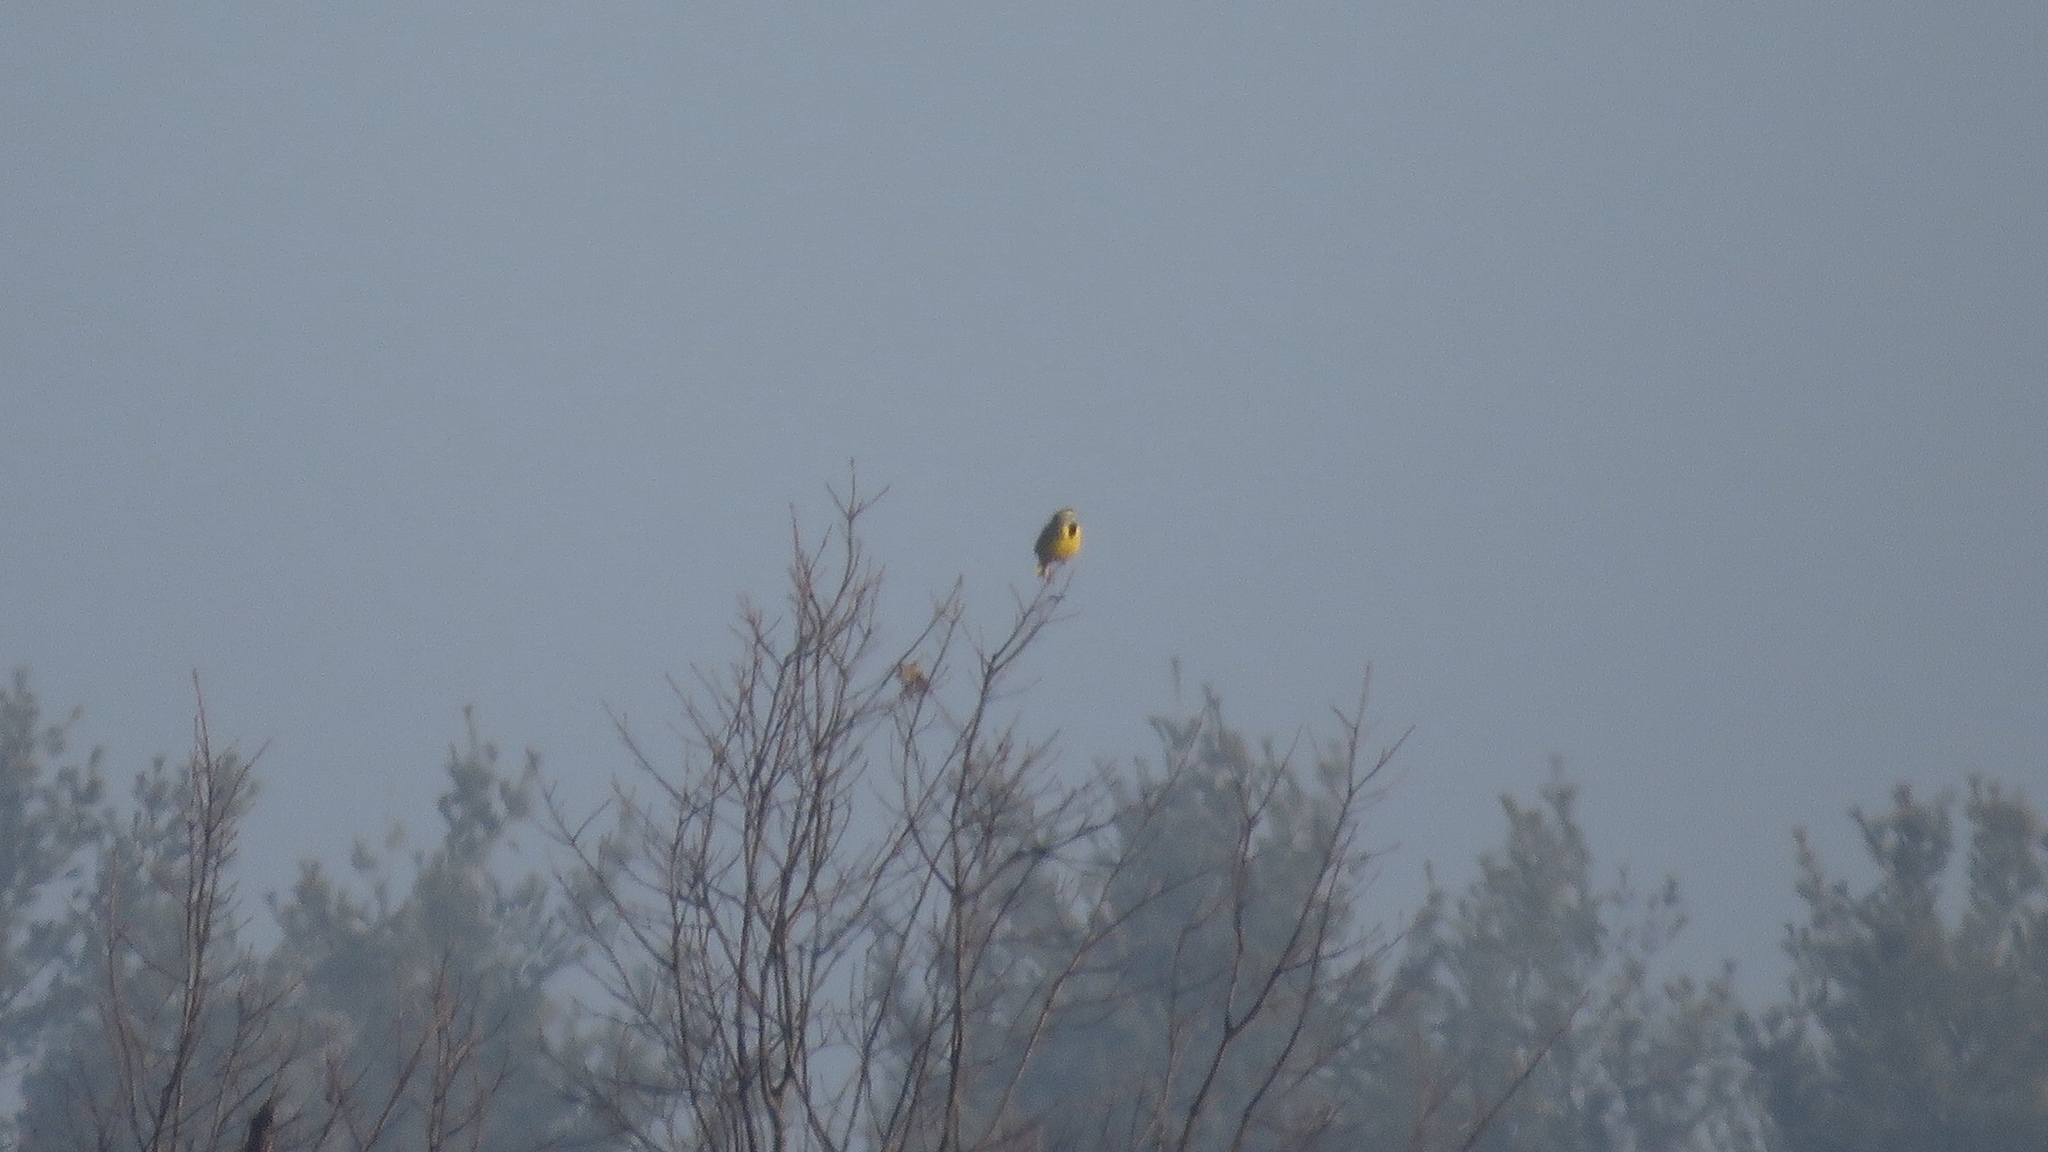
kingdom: Animalia
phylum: Chordata
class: Aves
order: Passeriformes
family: Icteridae
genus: Sturnella
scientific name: Sturnella magna
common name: Eastern meadowlark
